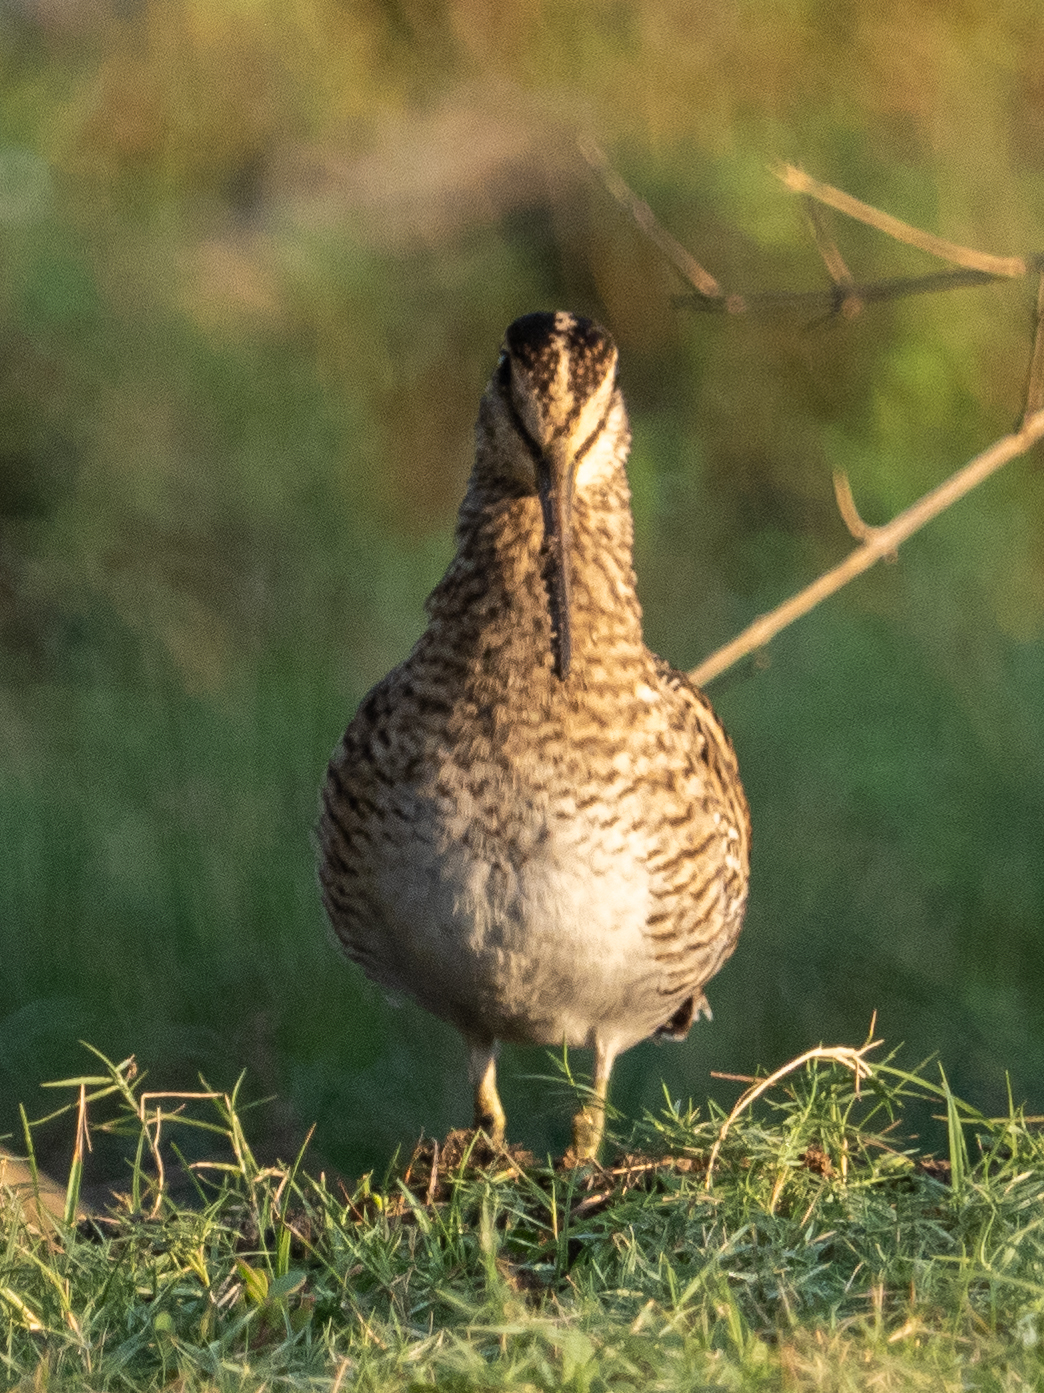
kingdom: Animalia
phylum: Chordata
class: Aves
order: Charadriiformes
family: Scolopacidae
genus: Gallinago
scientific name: Gallinago stenura
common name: Pin-tailed snipe
